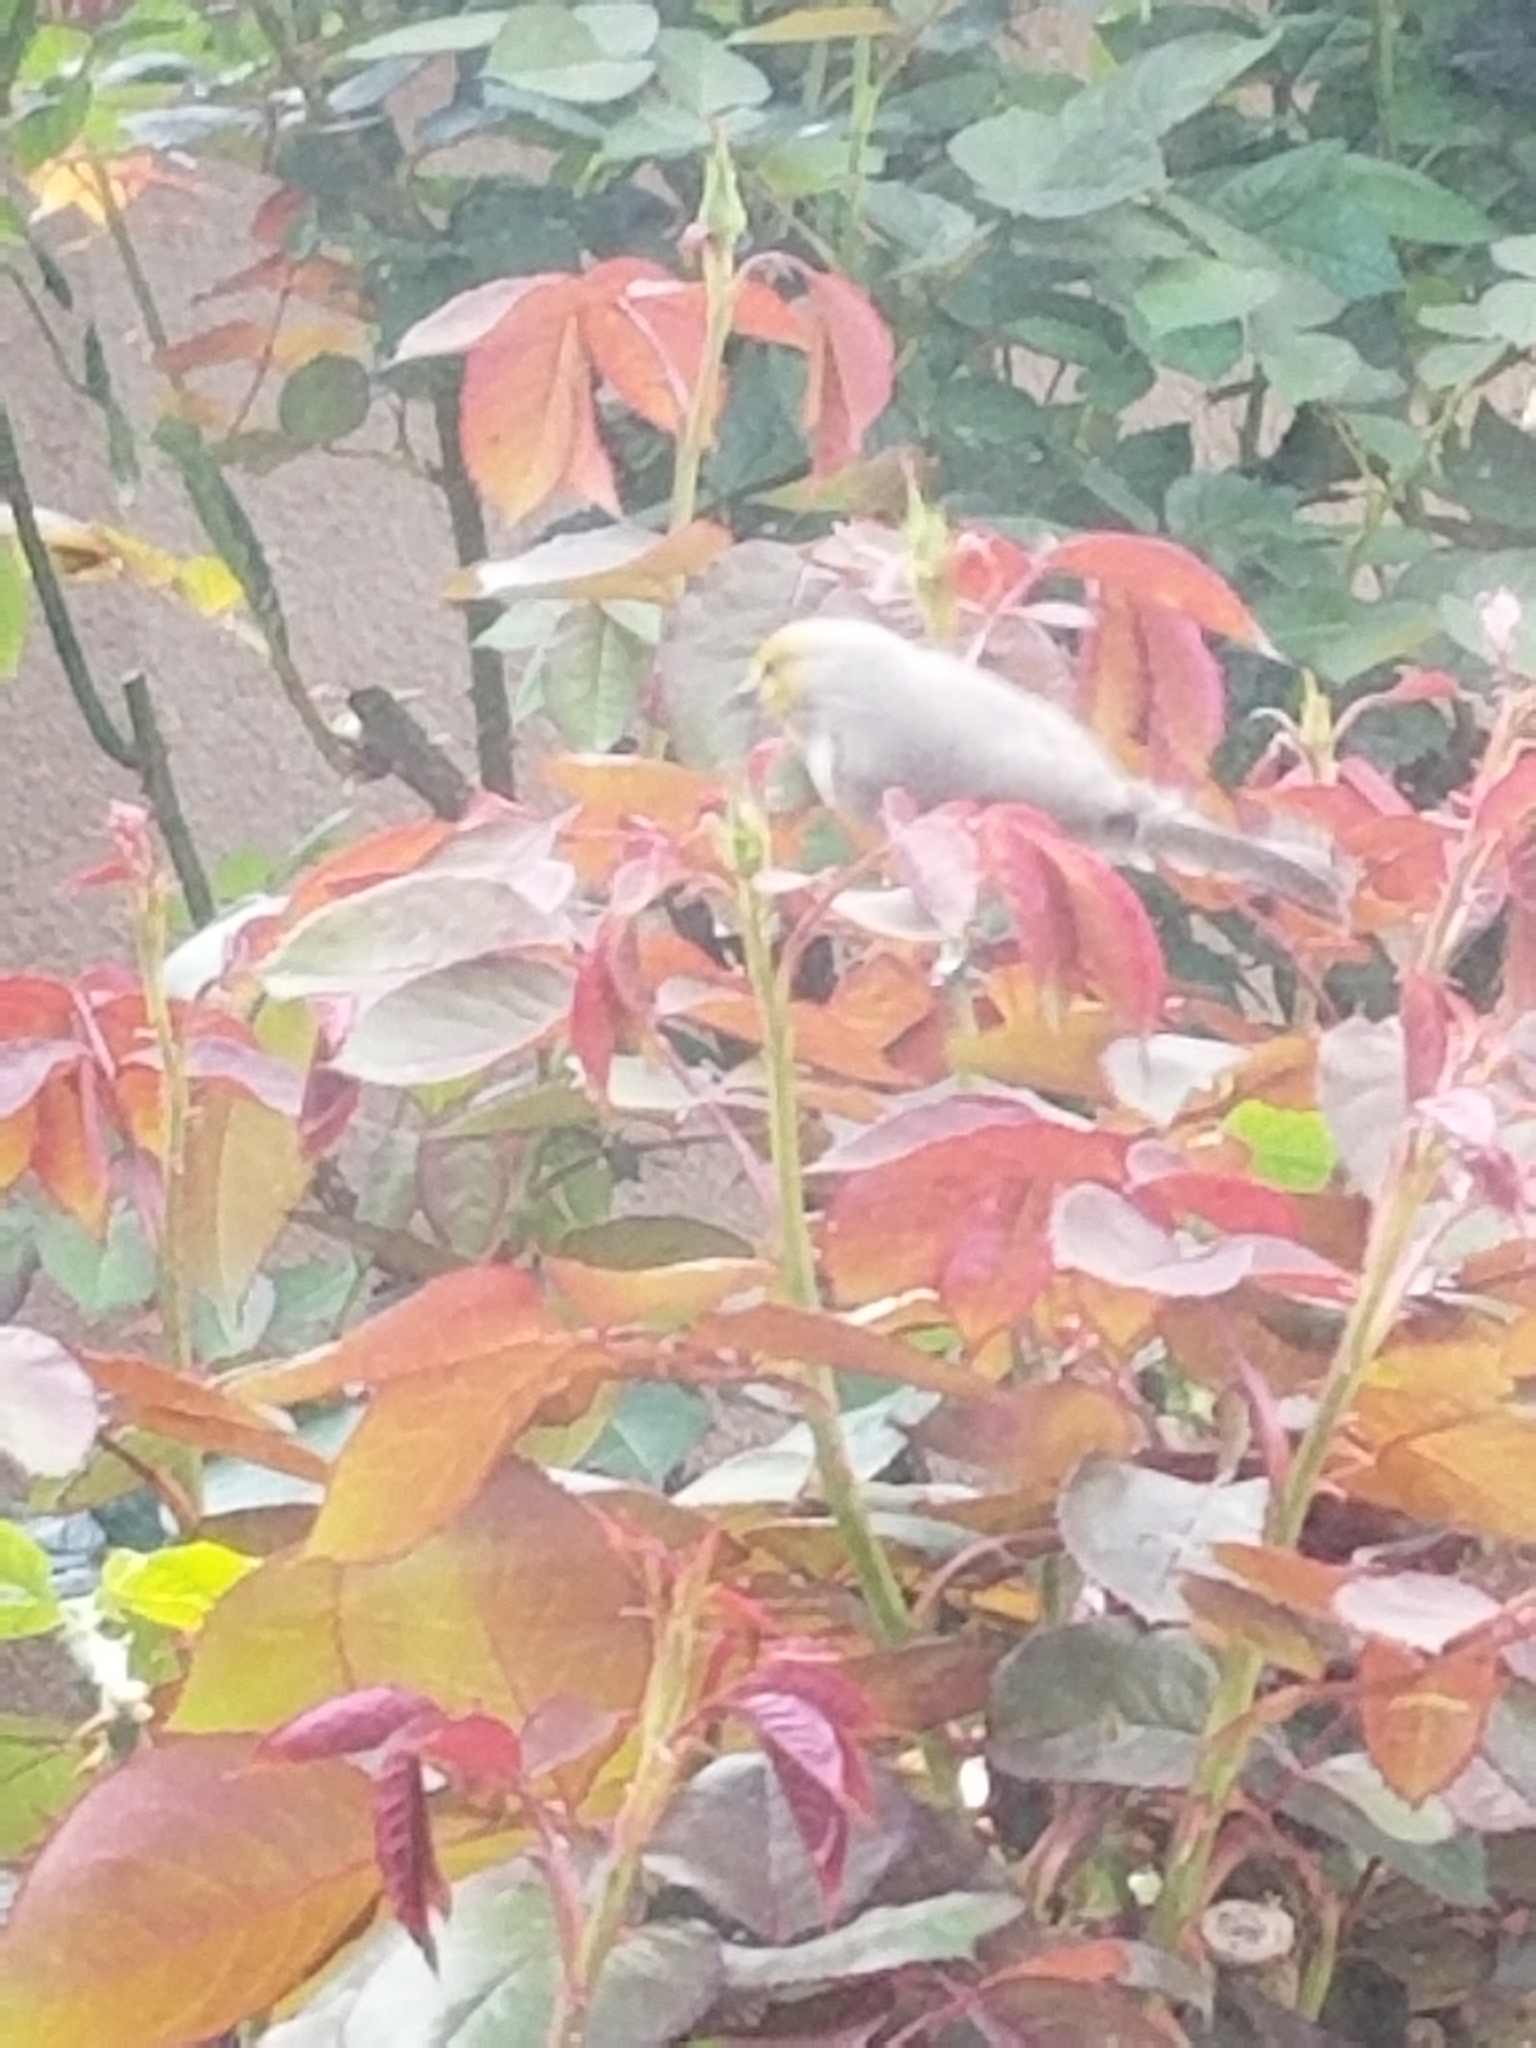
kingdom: Animalia
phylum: Chordata
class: Aves
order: Passeriformes
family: Remizidae
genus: Auriparus
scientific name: Auriparus flaviceps
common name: Verdin
